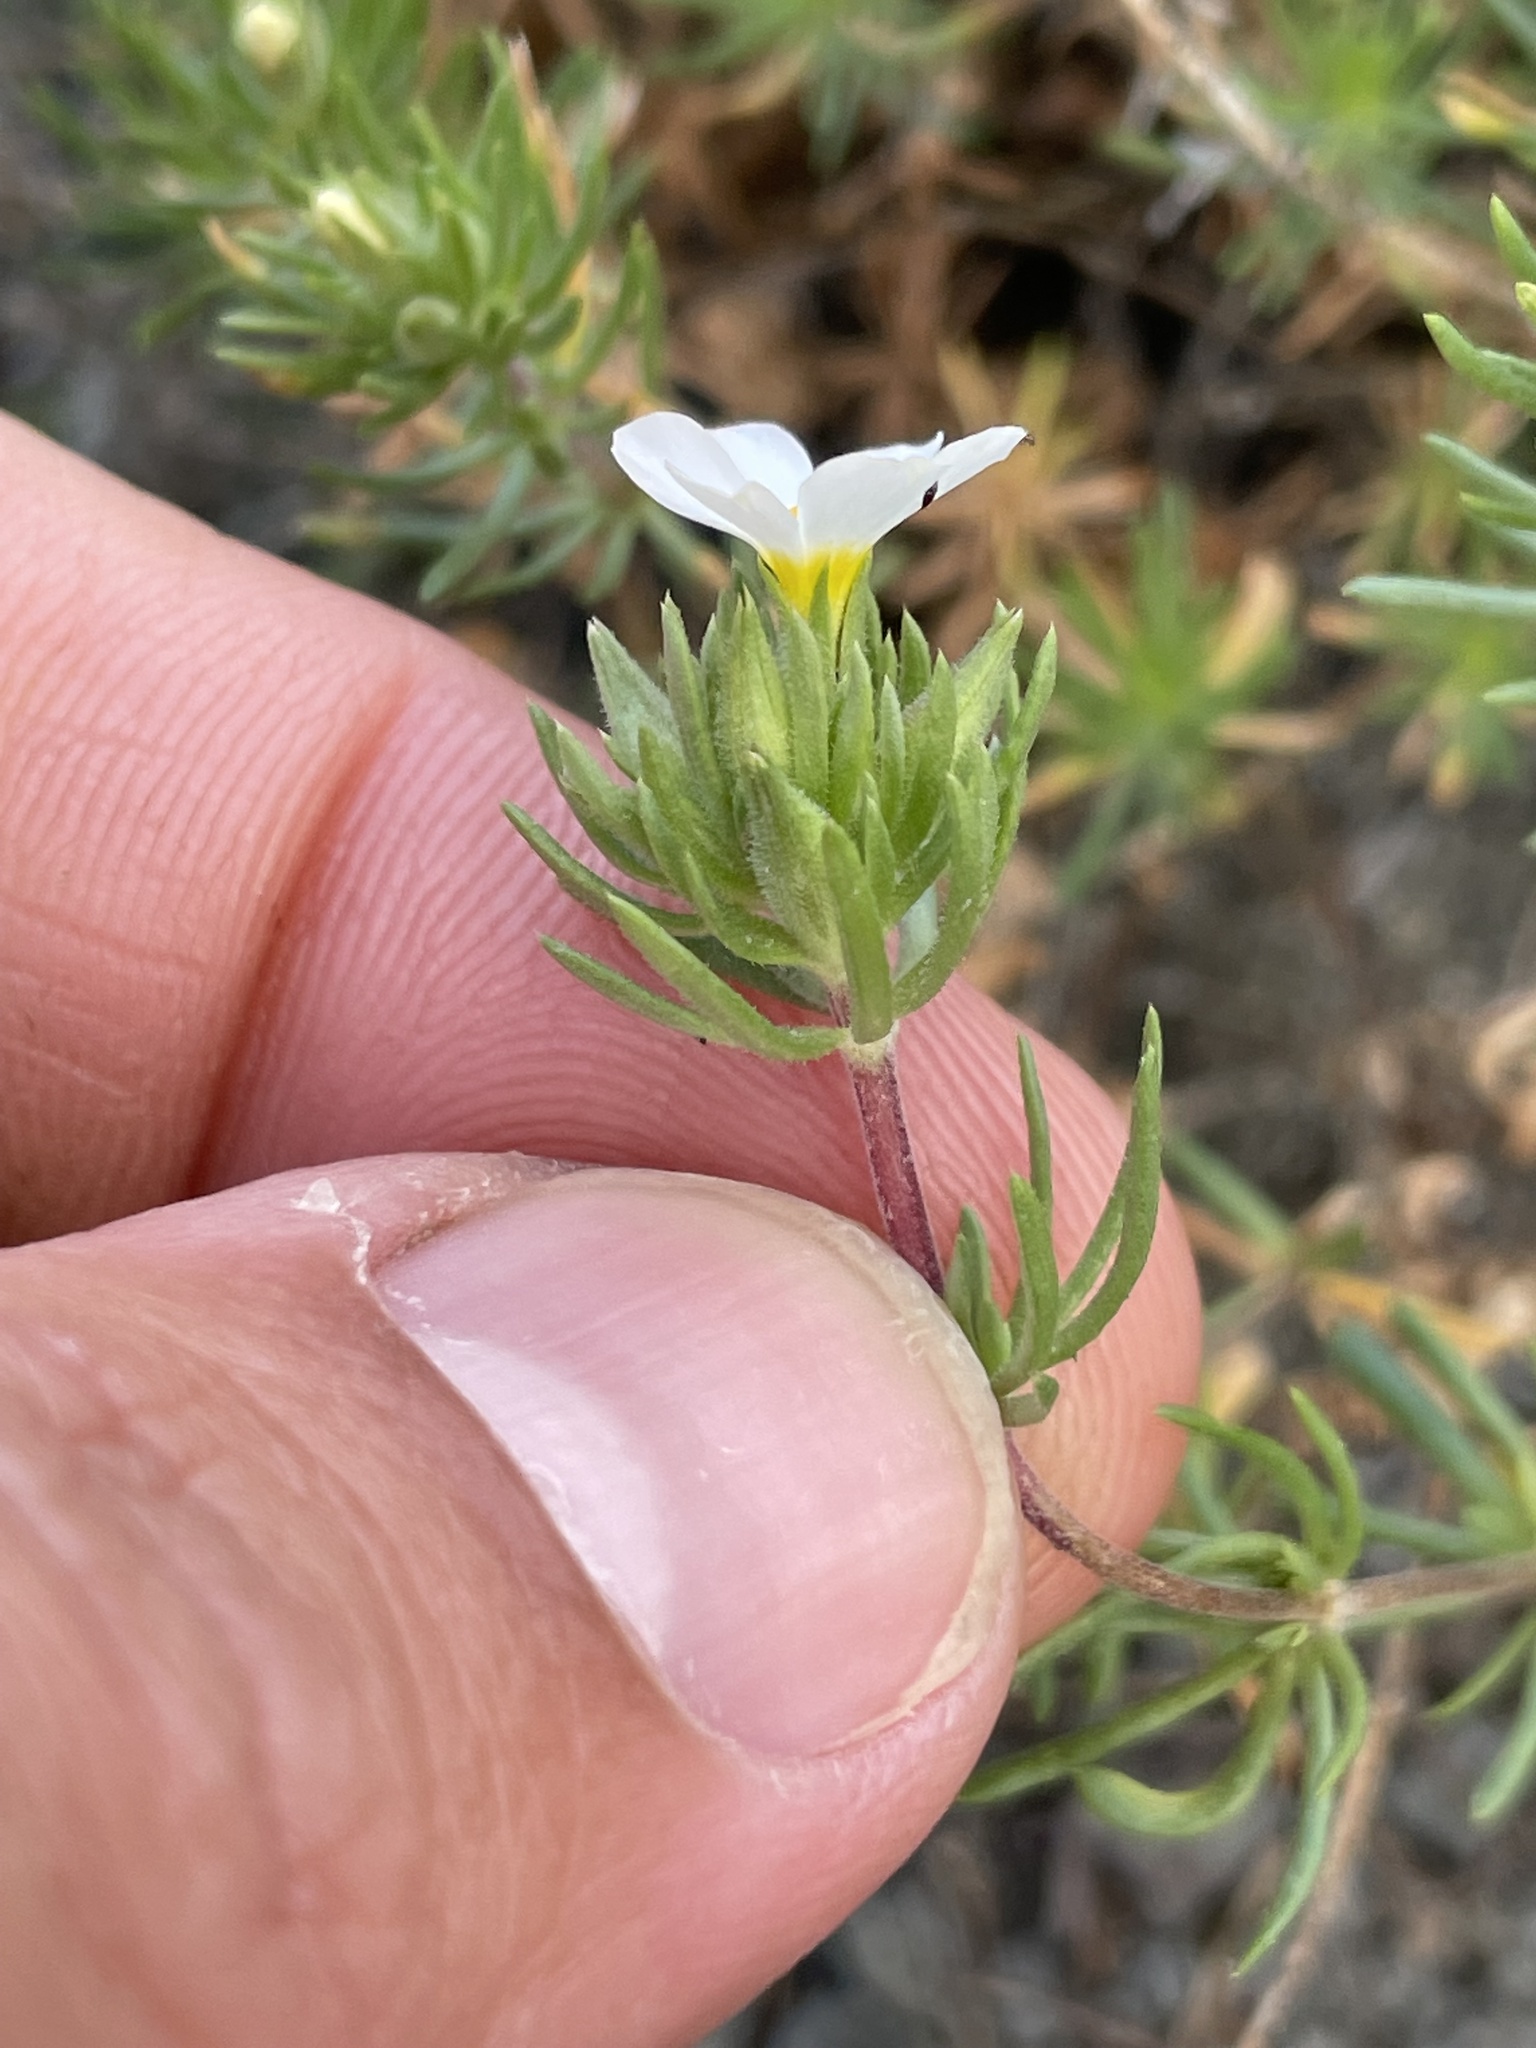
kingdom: Plantae
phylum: Tracheophyta
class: Magnoliopsida
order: Ericales
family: Polemoniaceae
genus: Leptosiphon
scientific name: Leptosiphon nuttallii
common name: Nuttall's linanthus
